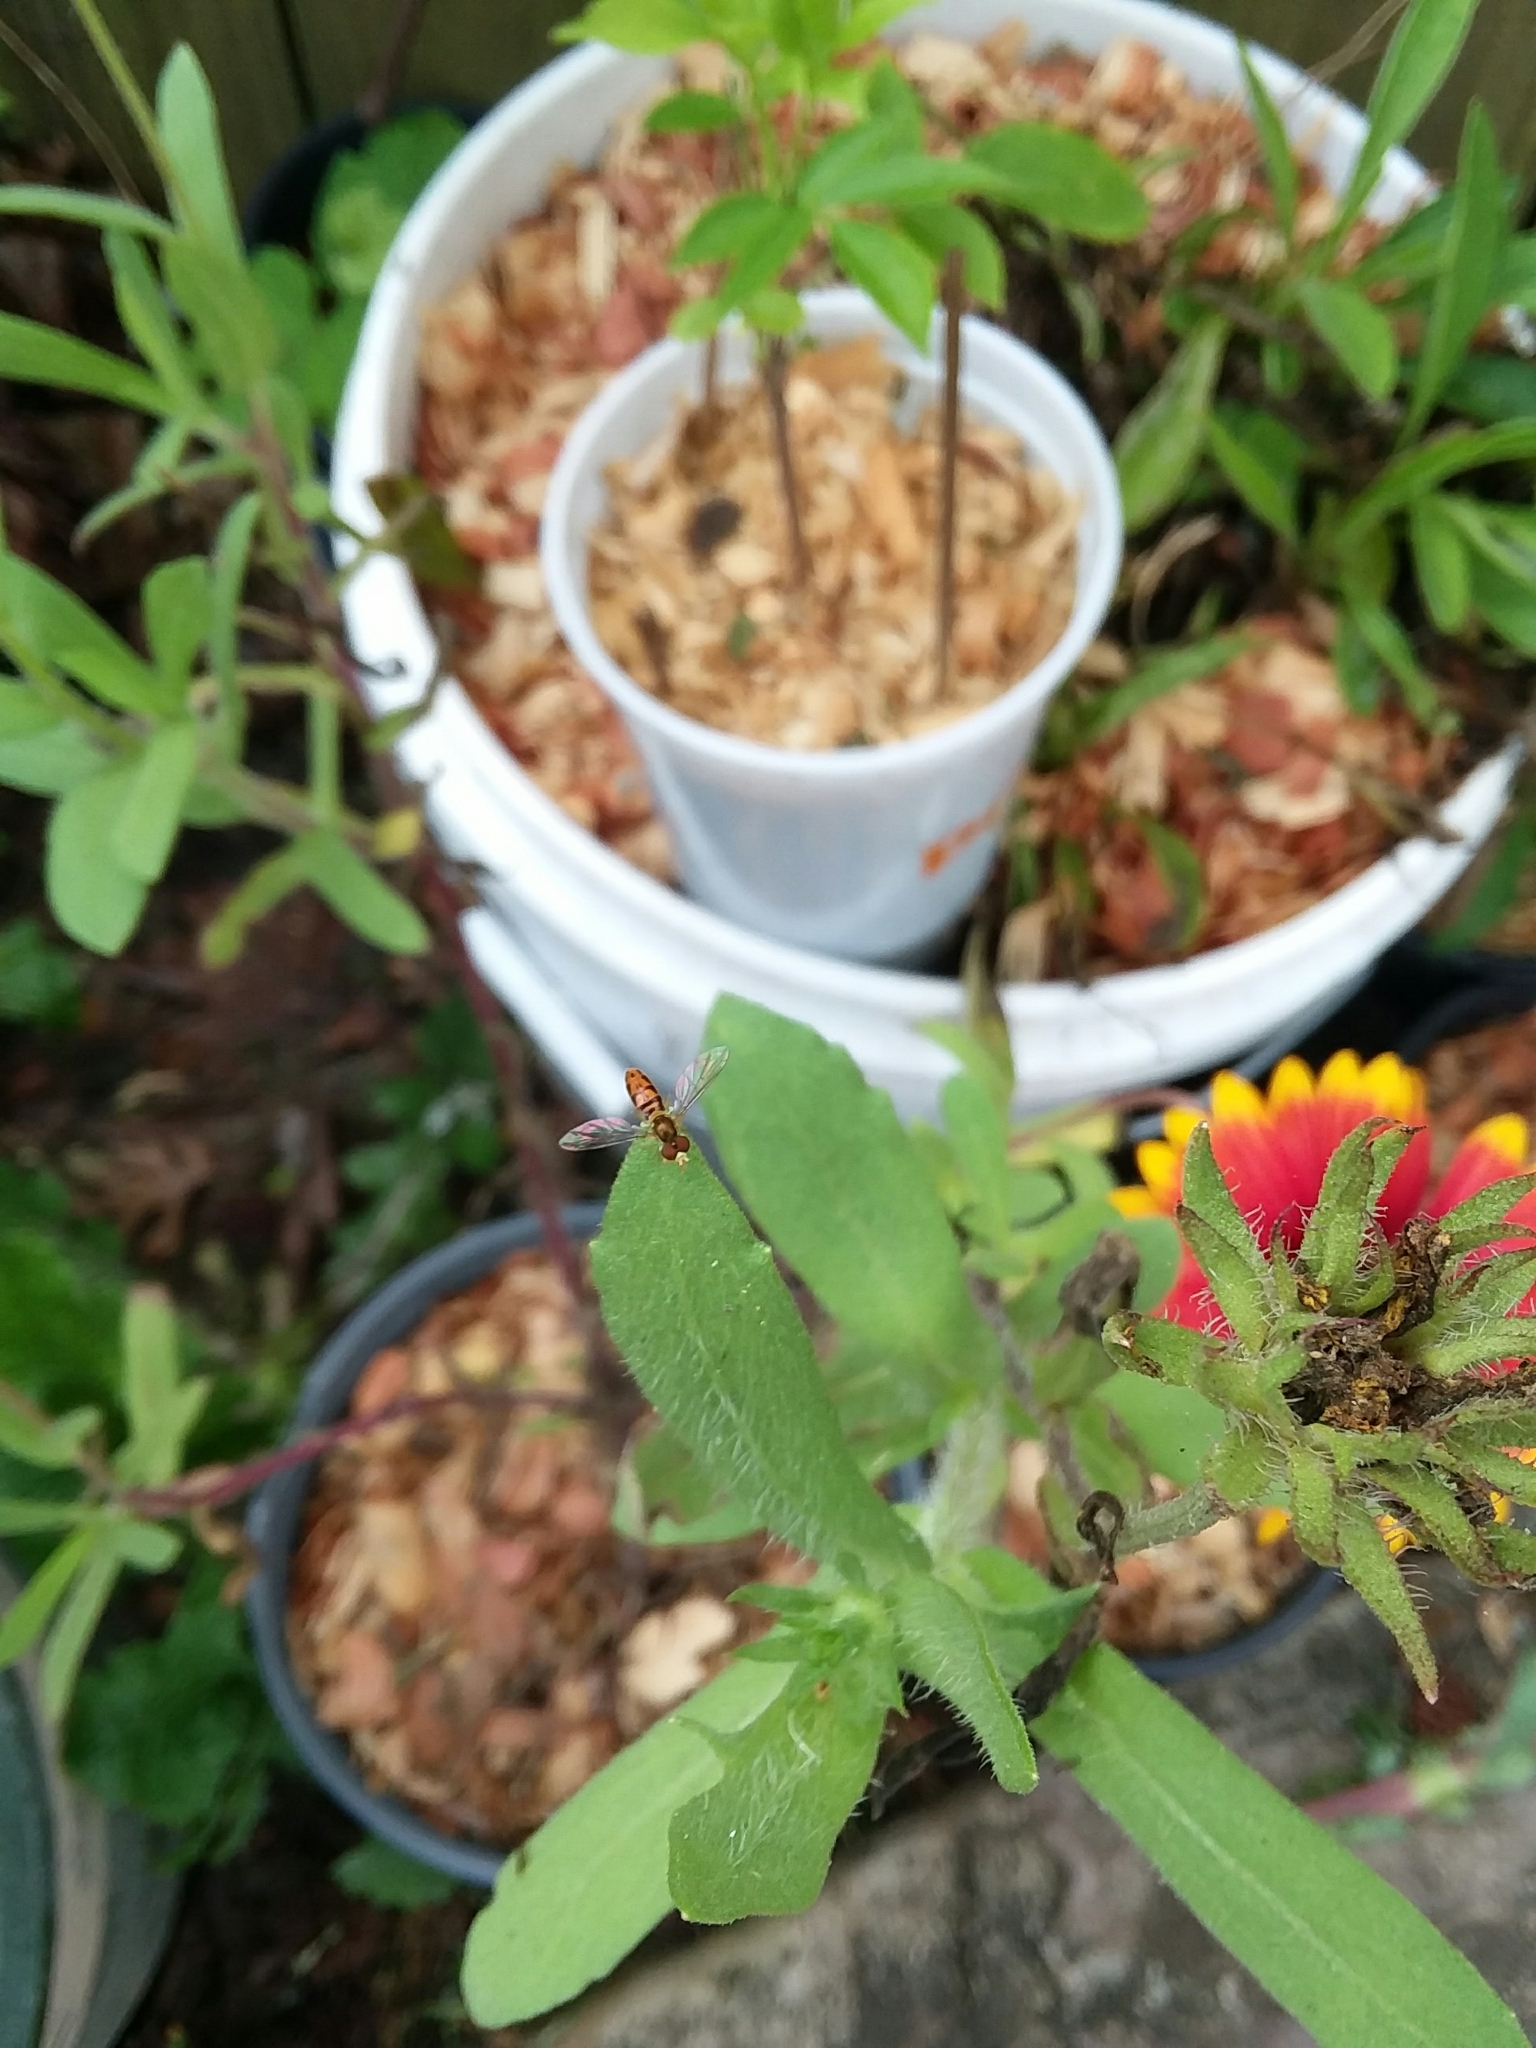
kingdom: Animalia
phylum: Arthropoda
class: Insecta
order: Diptera
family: Syrphidae
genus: Toxomerus
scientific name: Toxomerus marginatus
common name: Syrphid fly
